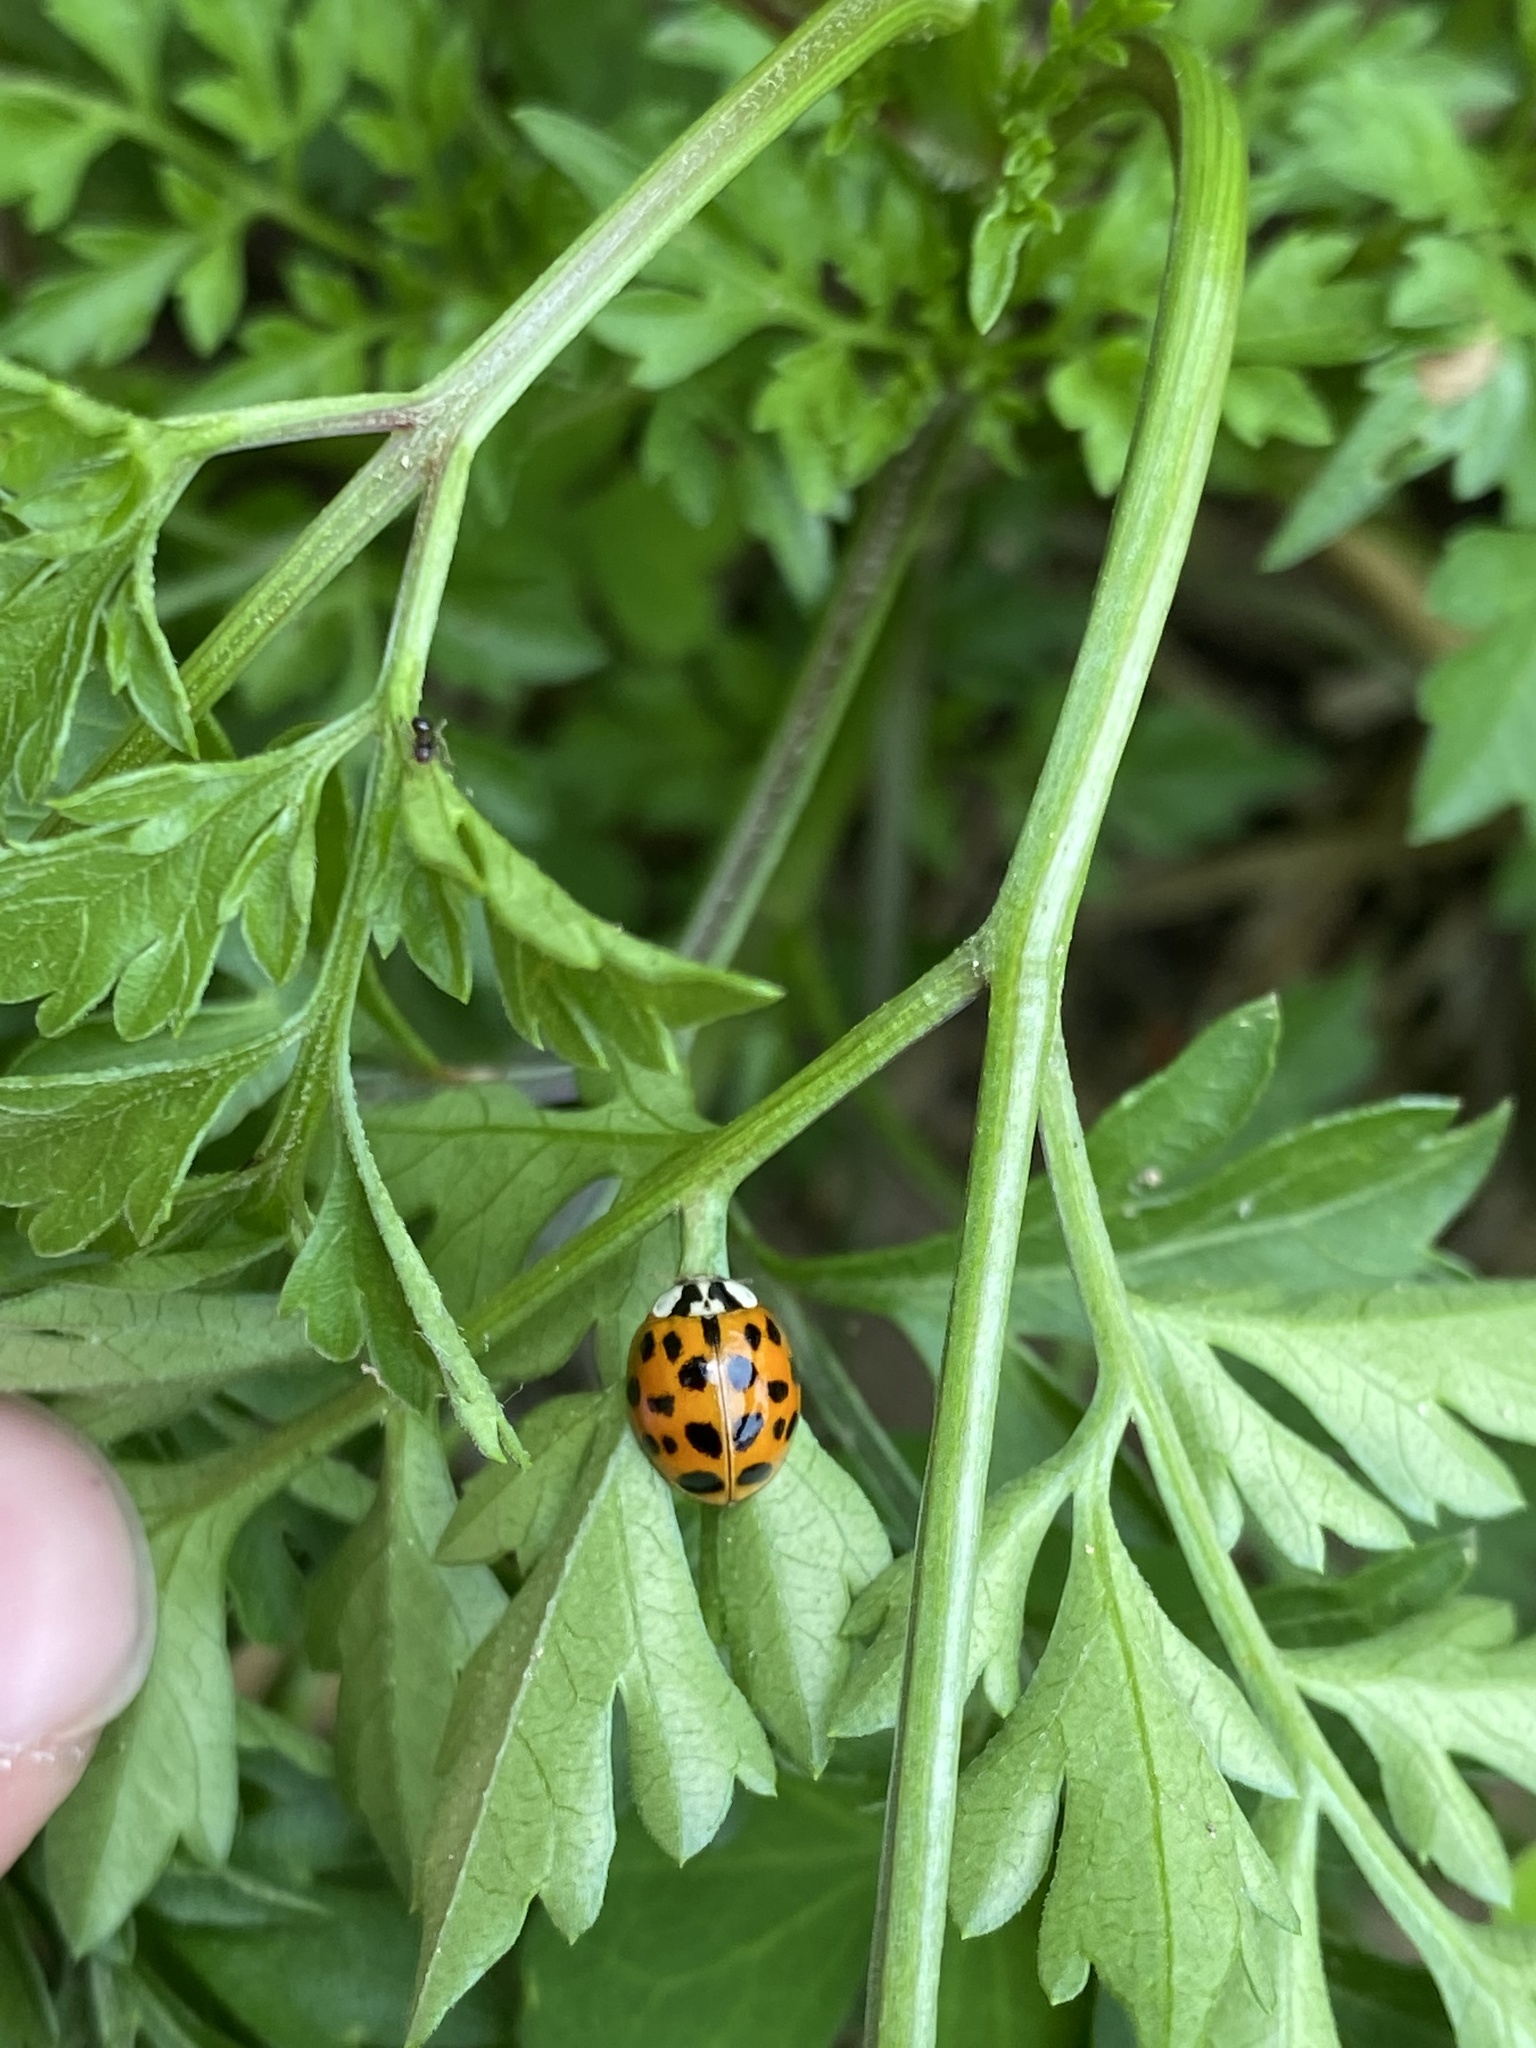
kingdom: Animalia
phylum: Arthropoda
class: Insecta
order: Coleoptera
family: Coccinellidae
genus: Harmonia
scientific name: Harmonia axyridis
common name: Harlequin ladybird
